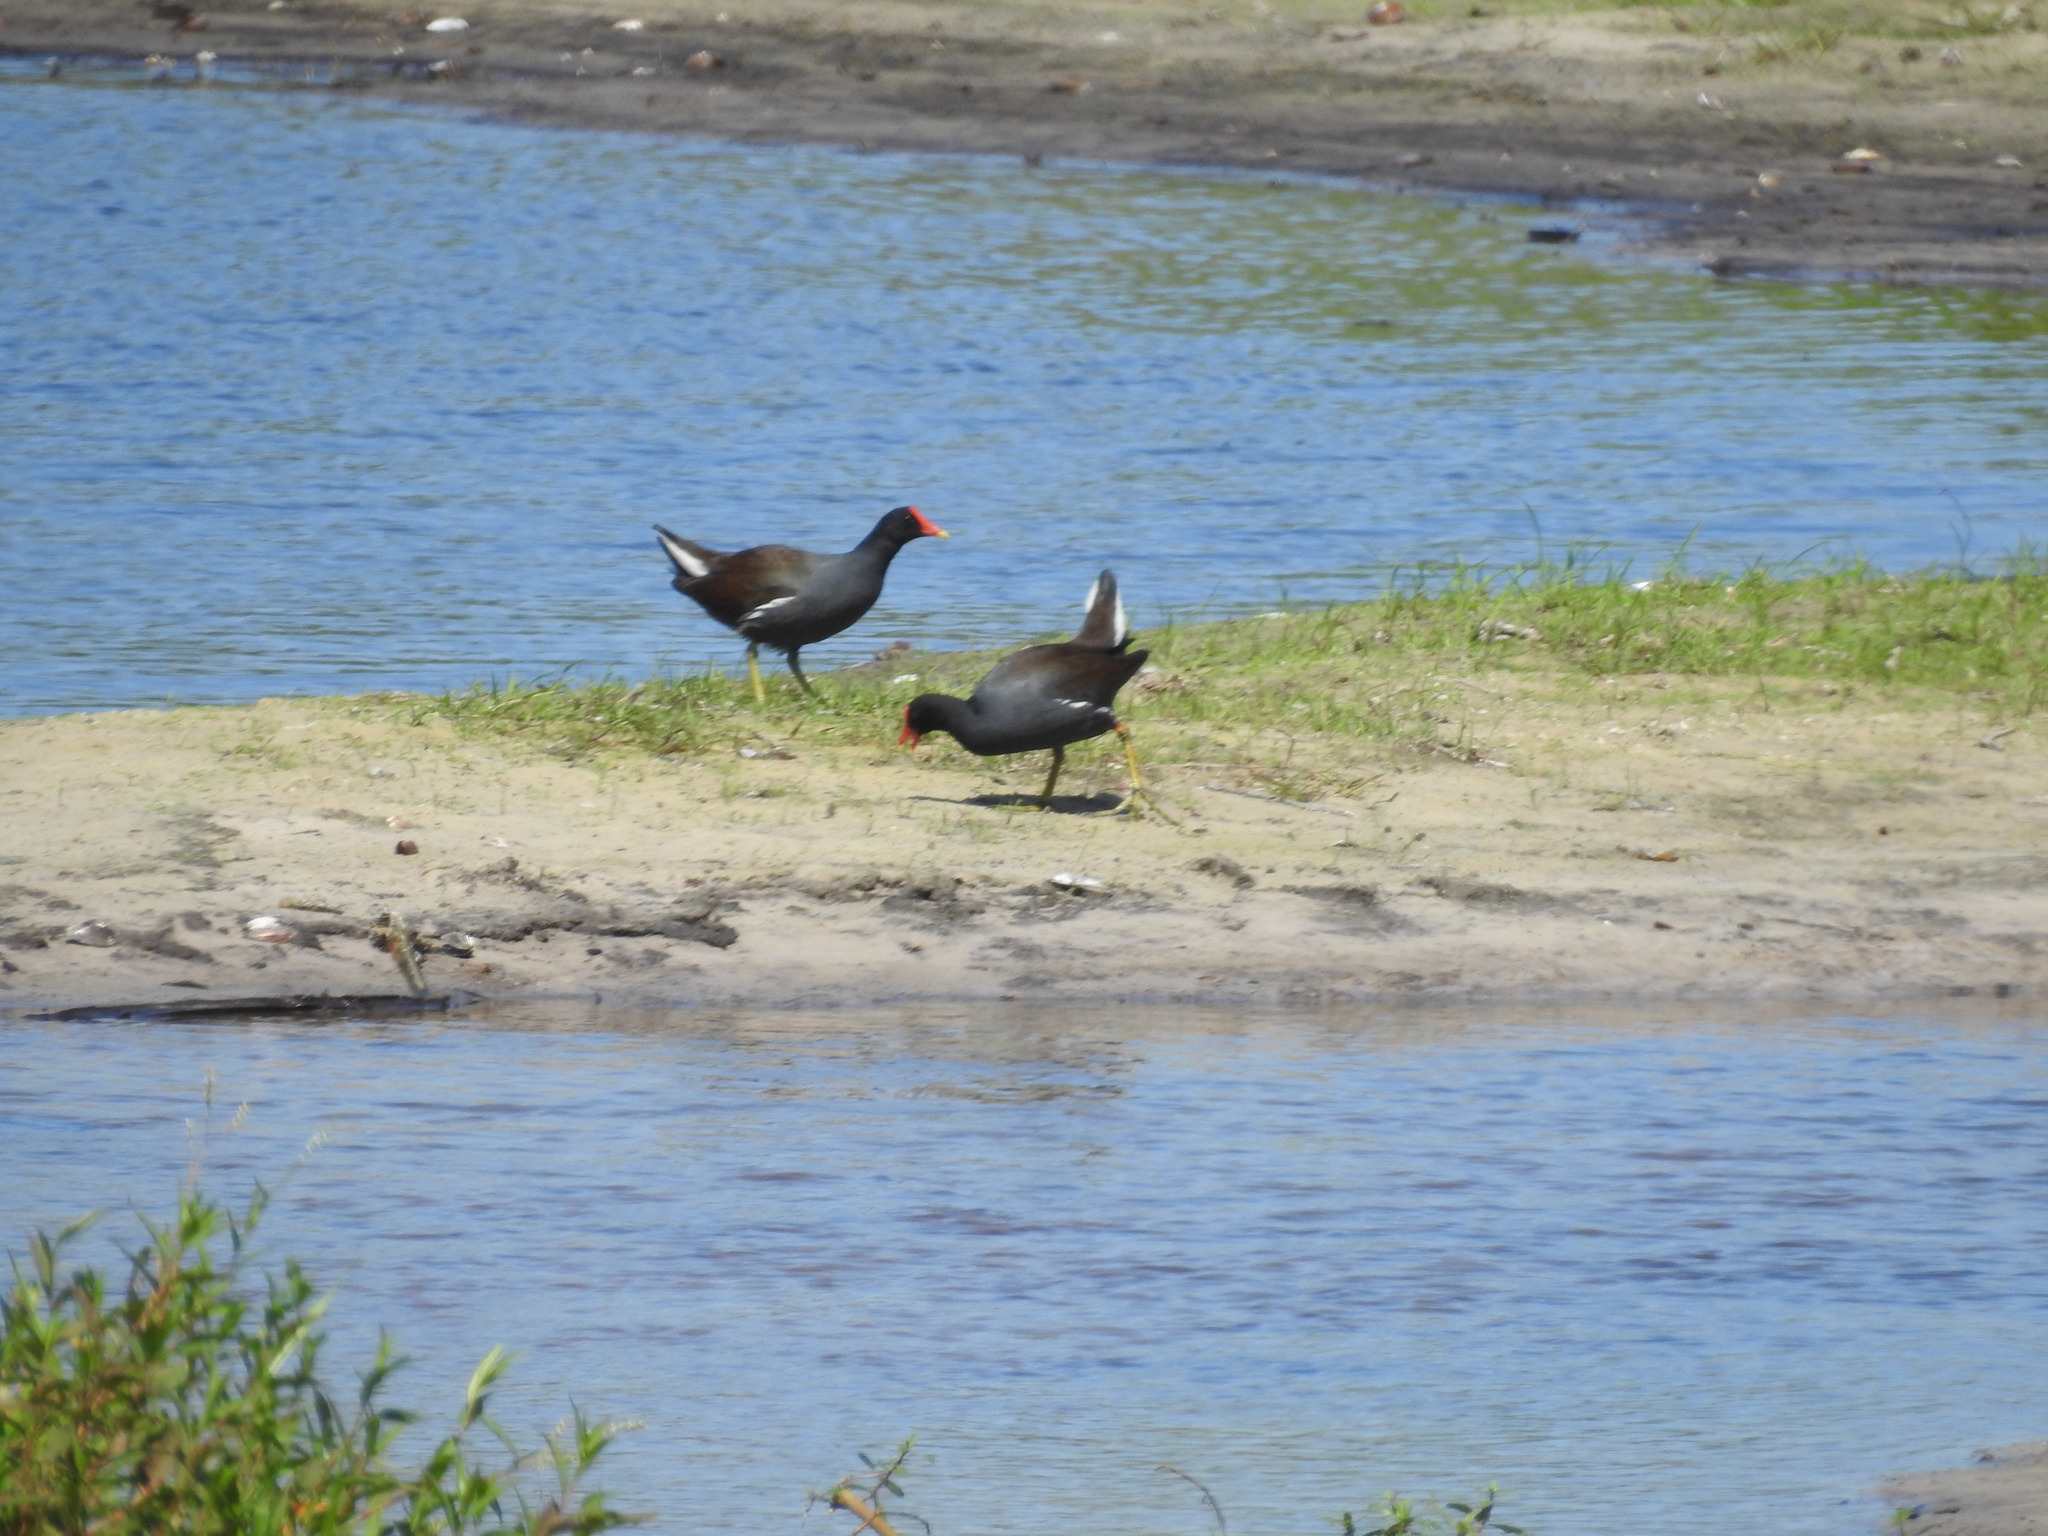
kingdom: Animalia
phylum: Chordata
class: Aves
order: Gruiformes
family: Rallidae
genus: Gallinula
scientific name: Gallinula chloropus
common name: Common moorhen
